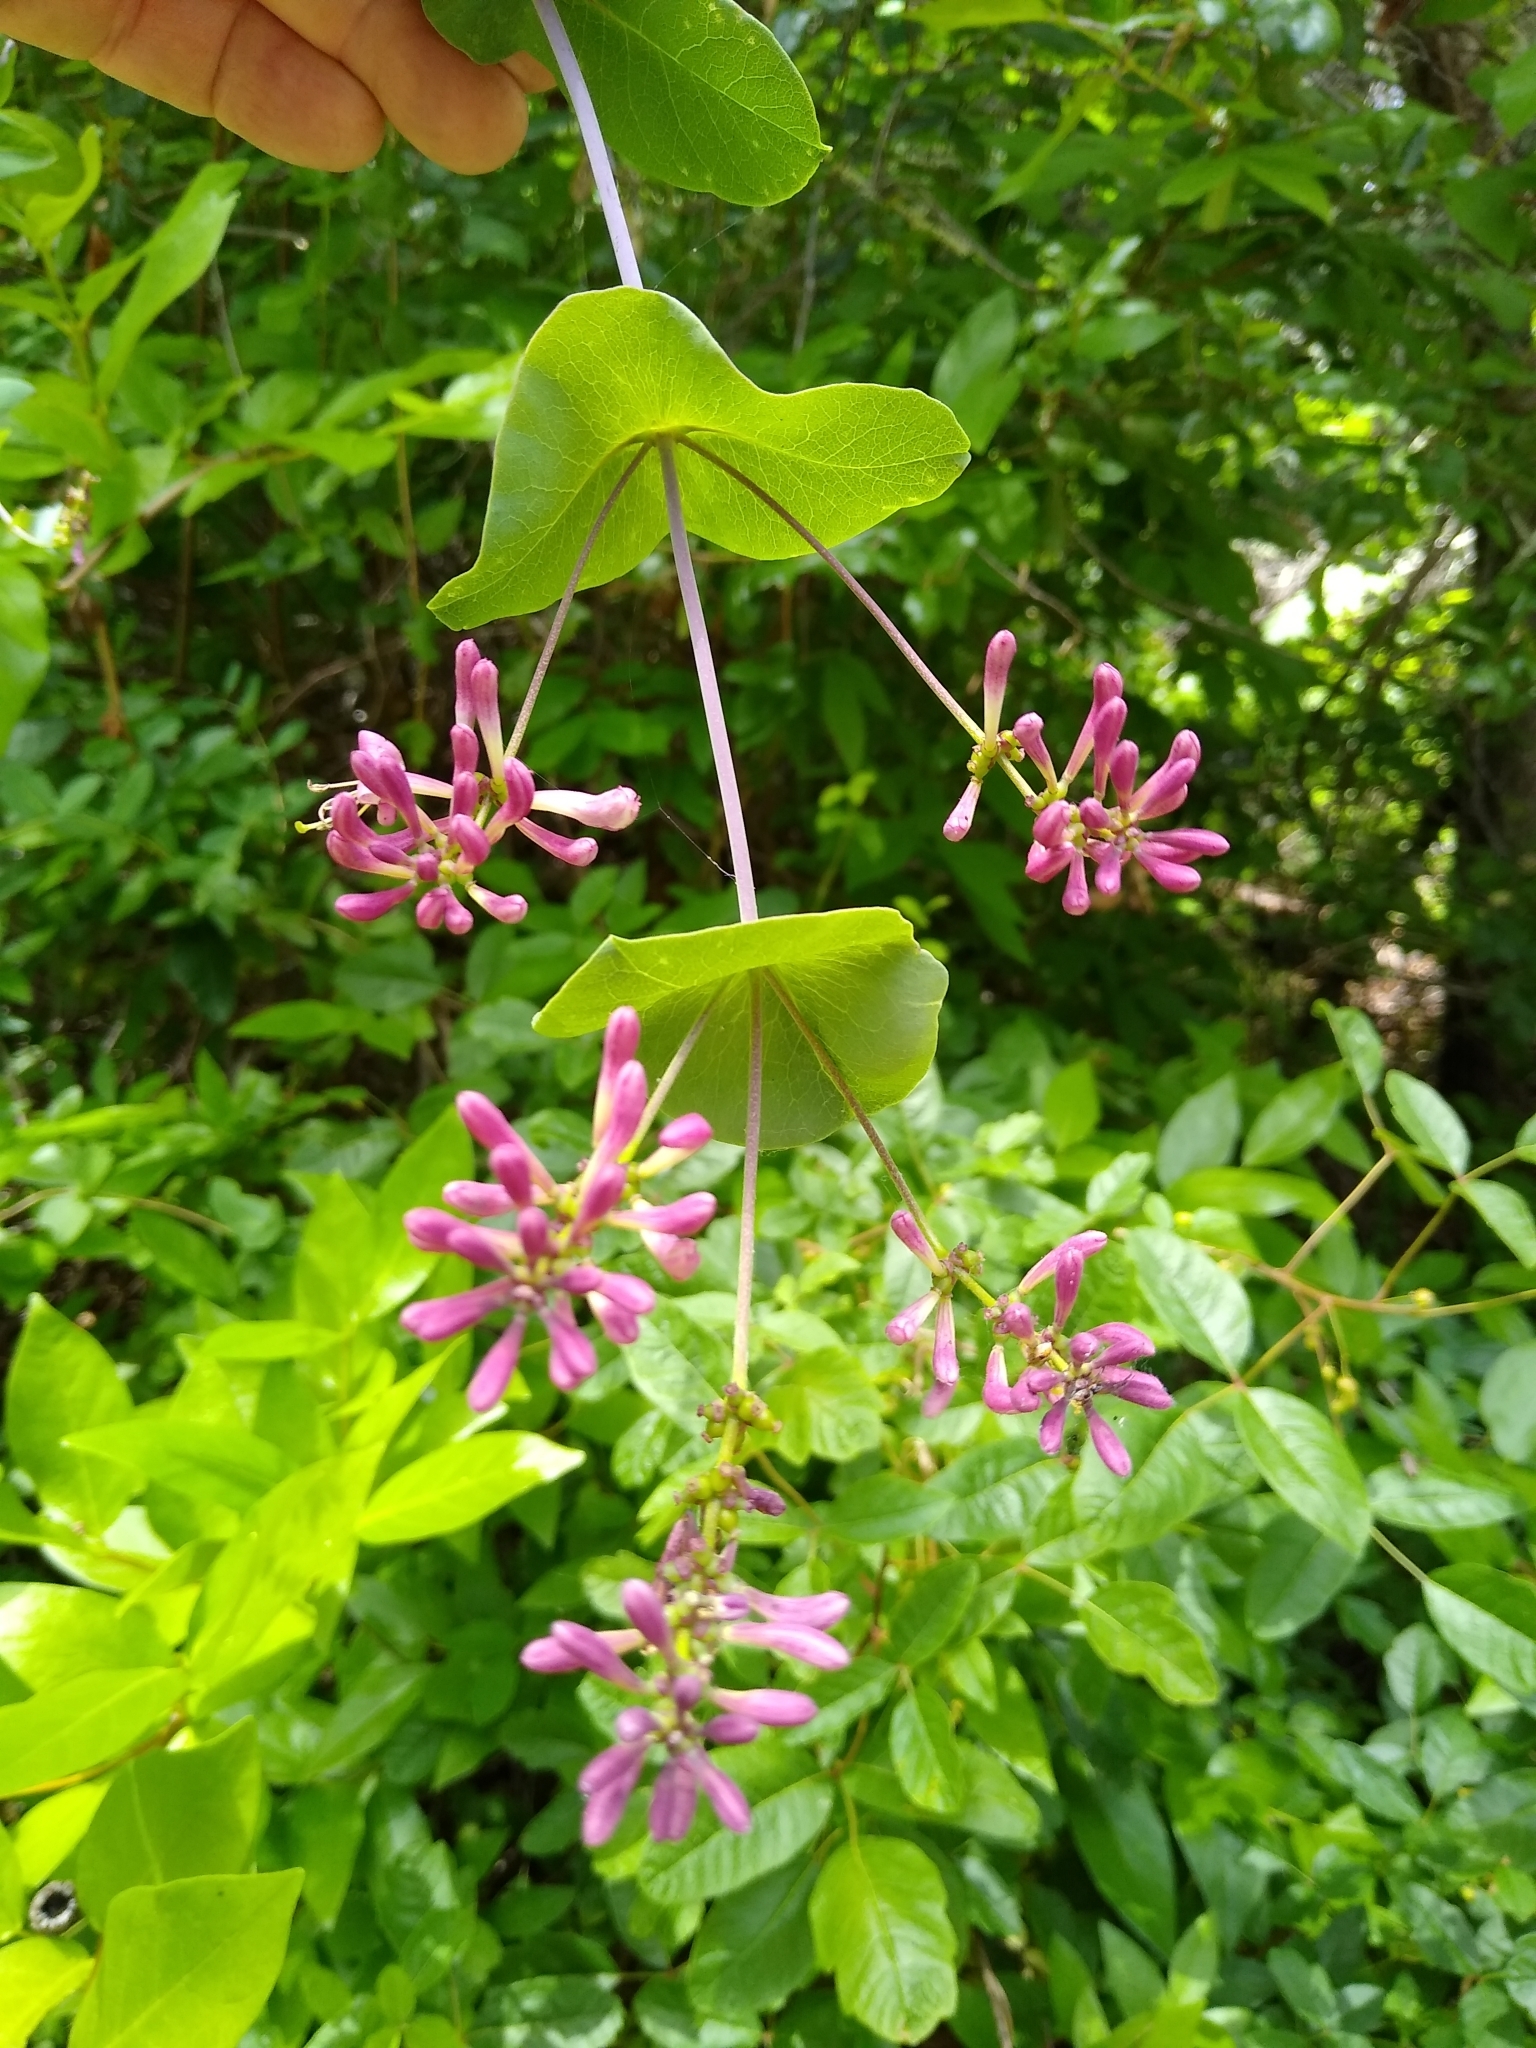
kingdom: Plantae
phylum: Tracheophyta
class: Magnoliopsida
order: Dipsacales
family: Caprifoliaceae
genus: Lonicera
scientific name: Lonicera hispidula
